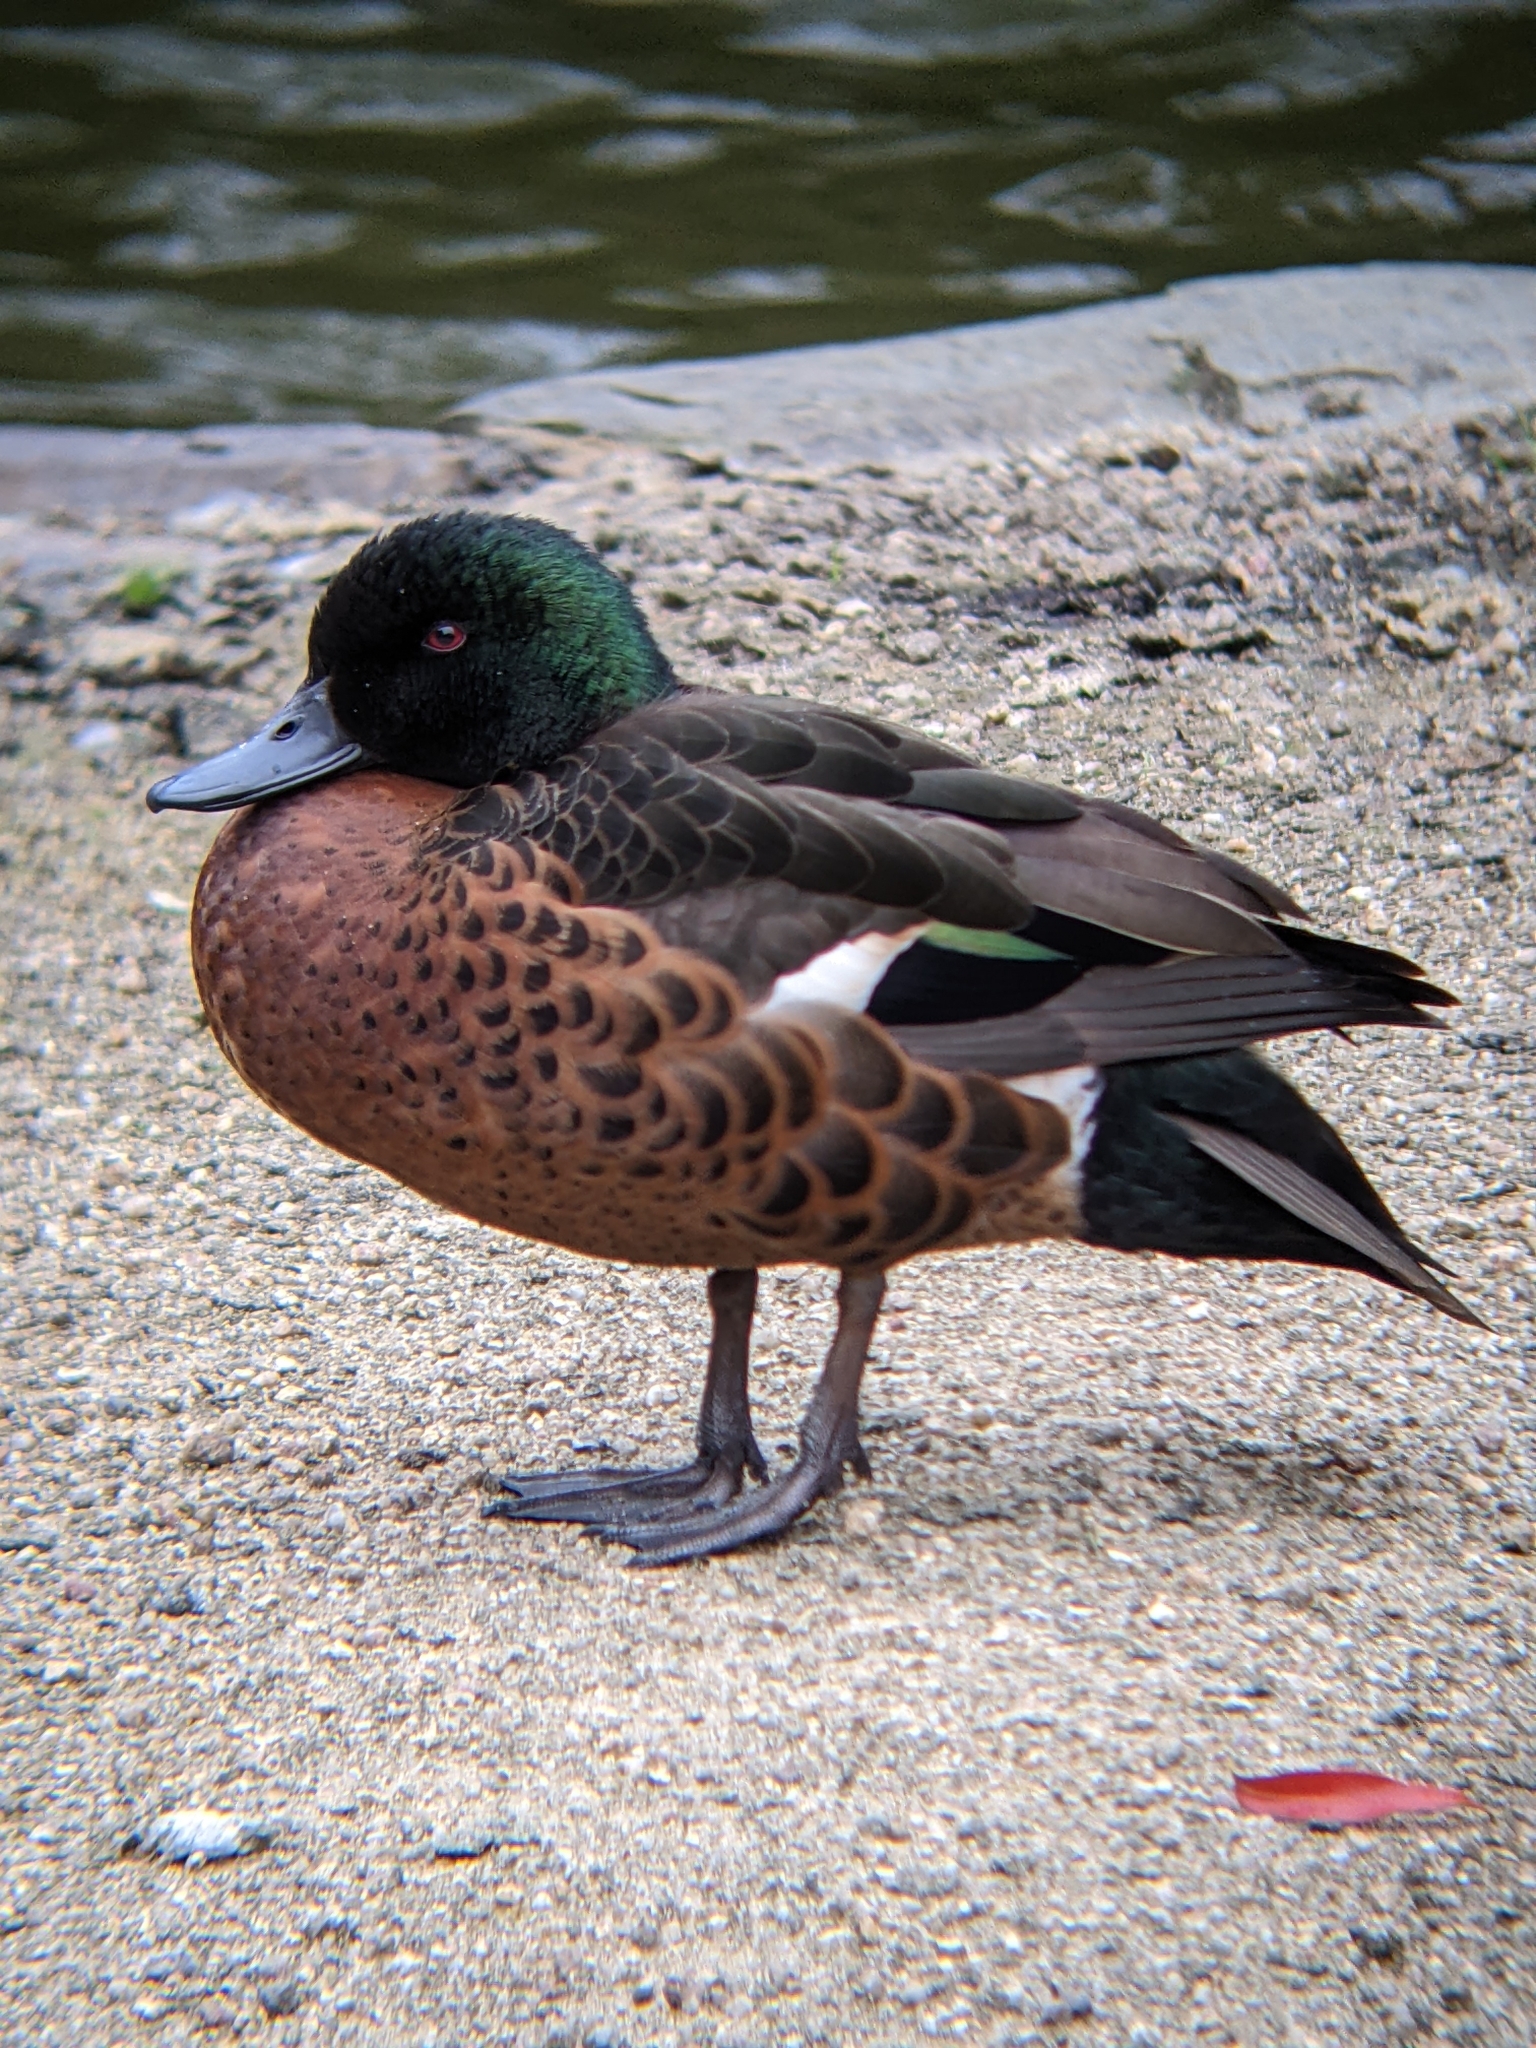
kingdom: Animalia
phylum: Chordata
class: Aves
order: Anseriformes
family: Anatidae
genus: Anas
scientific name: Anas castanea
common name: Chestnut teal
